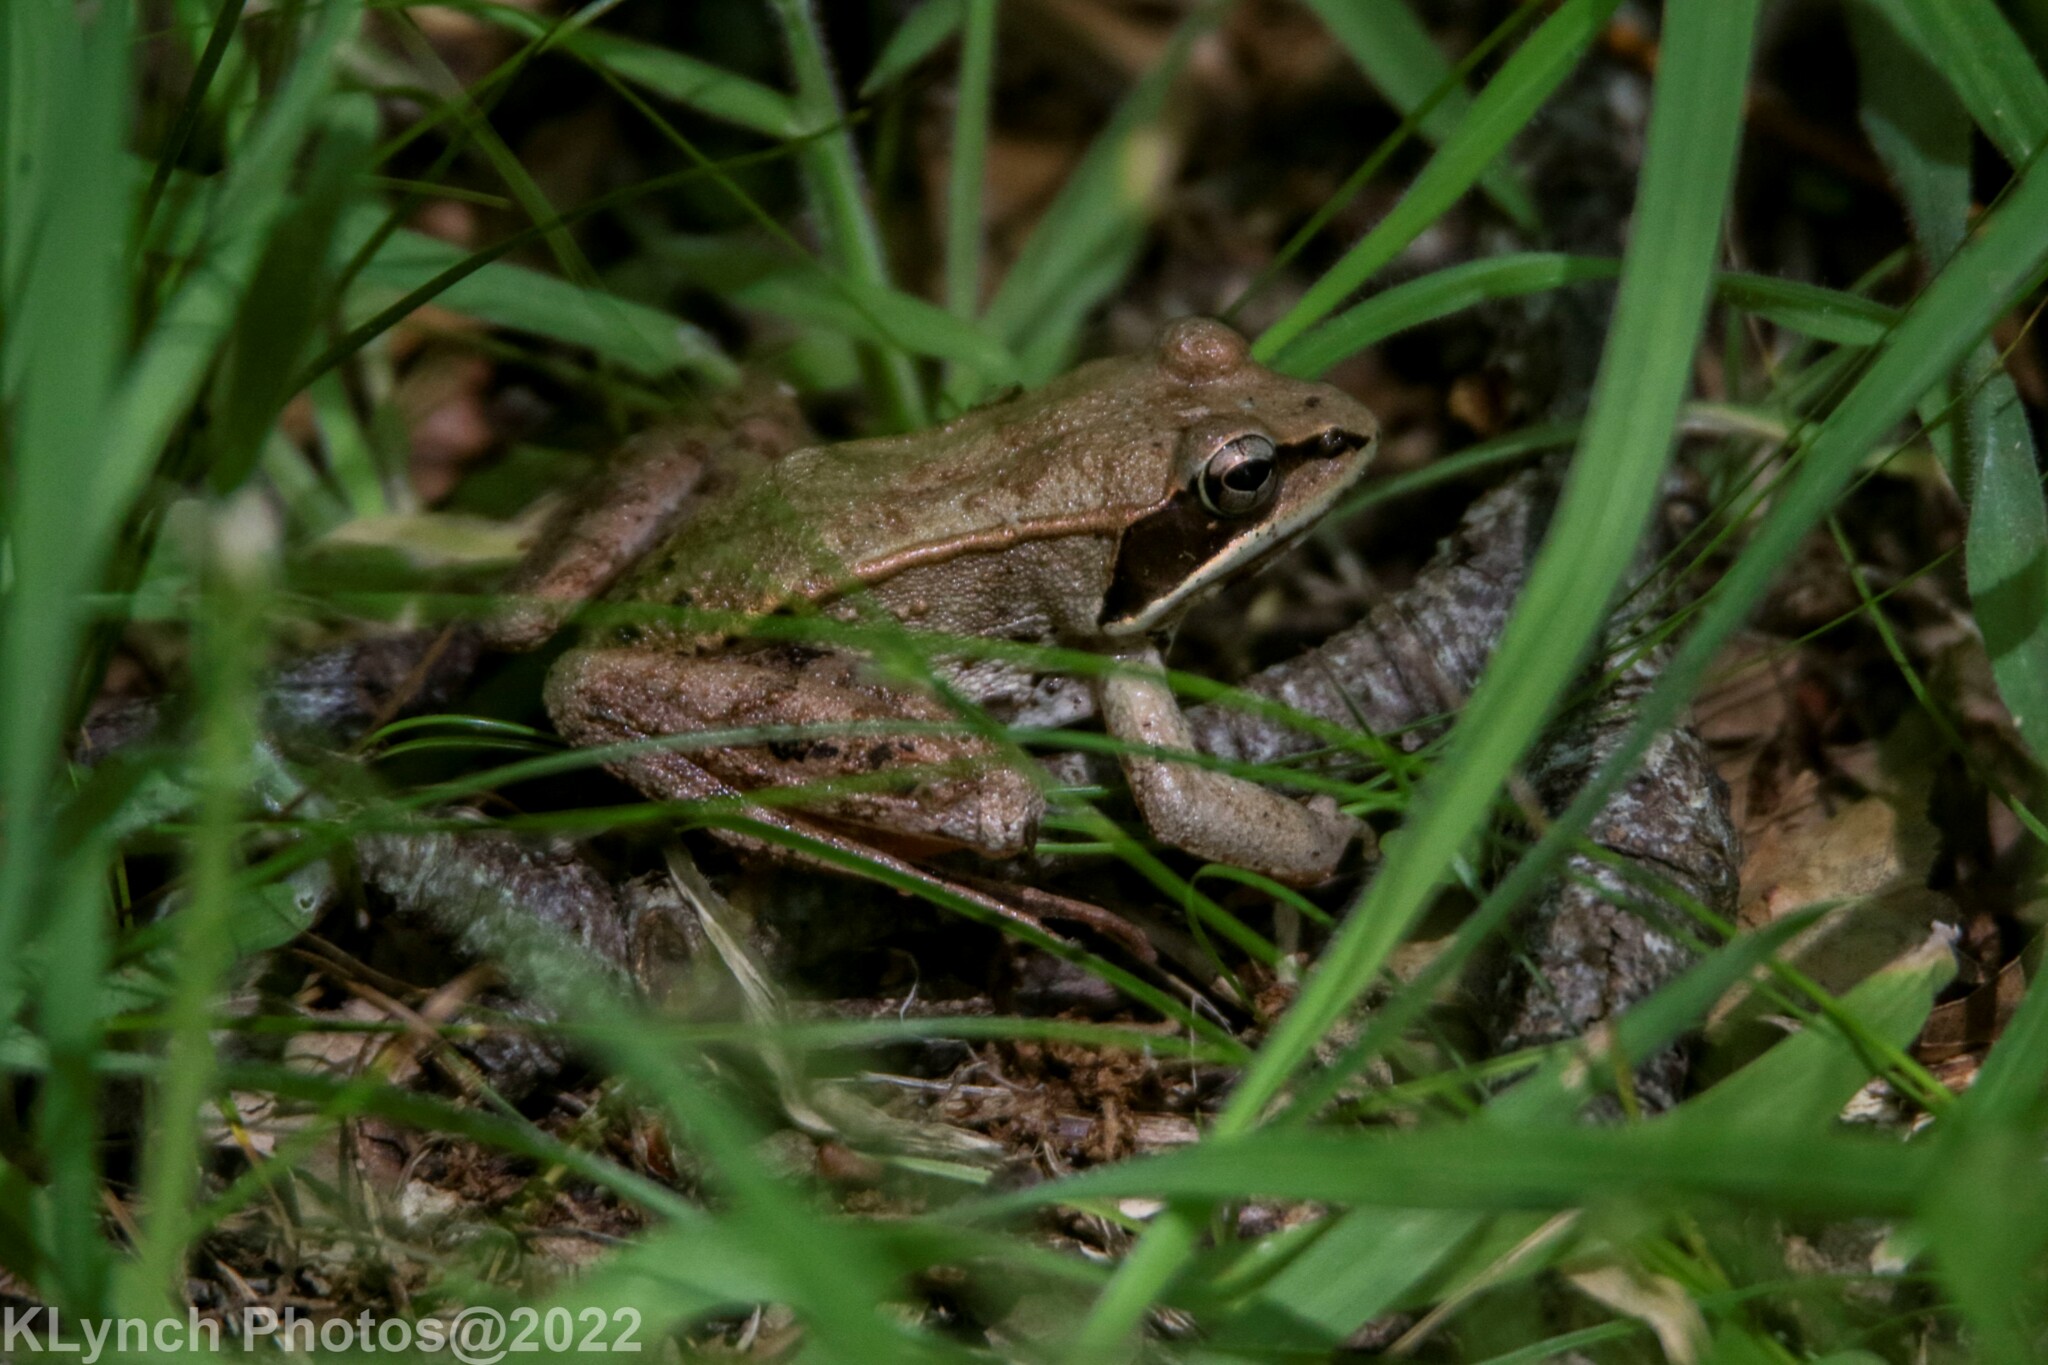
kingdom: Animalia
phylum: Chordata
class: Amphibia
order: Anura
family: Ranidae
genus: Lithobates
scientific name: Lithobates sylvaticus
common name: Wood frog
